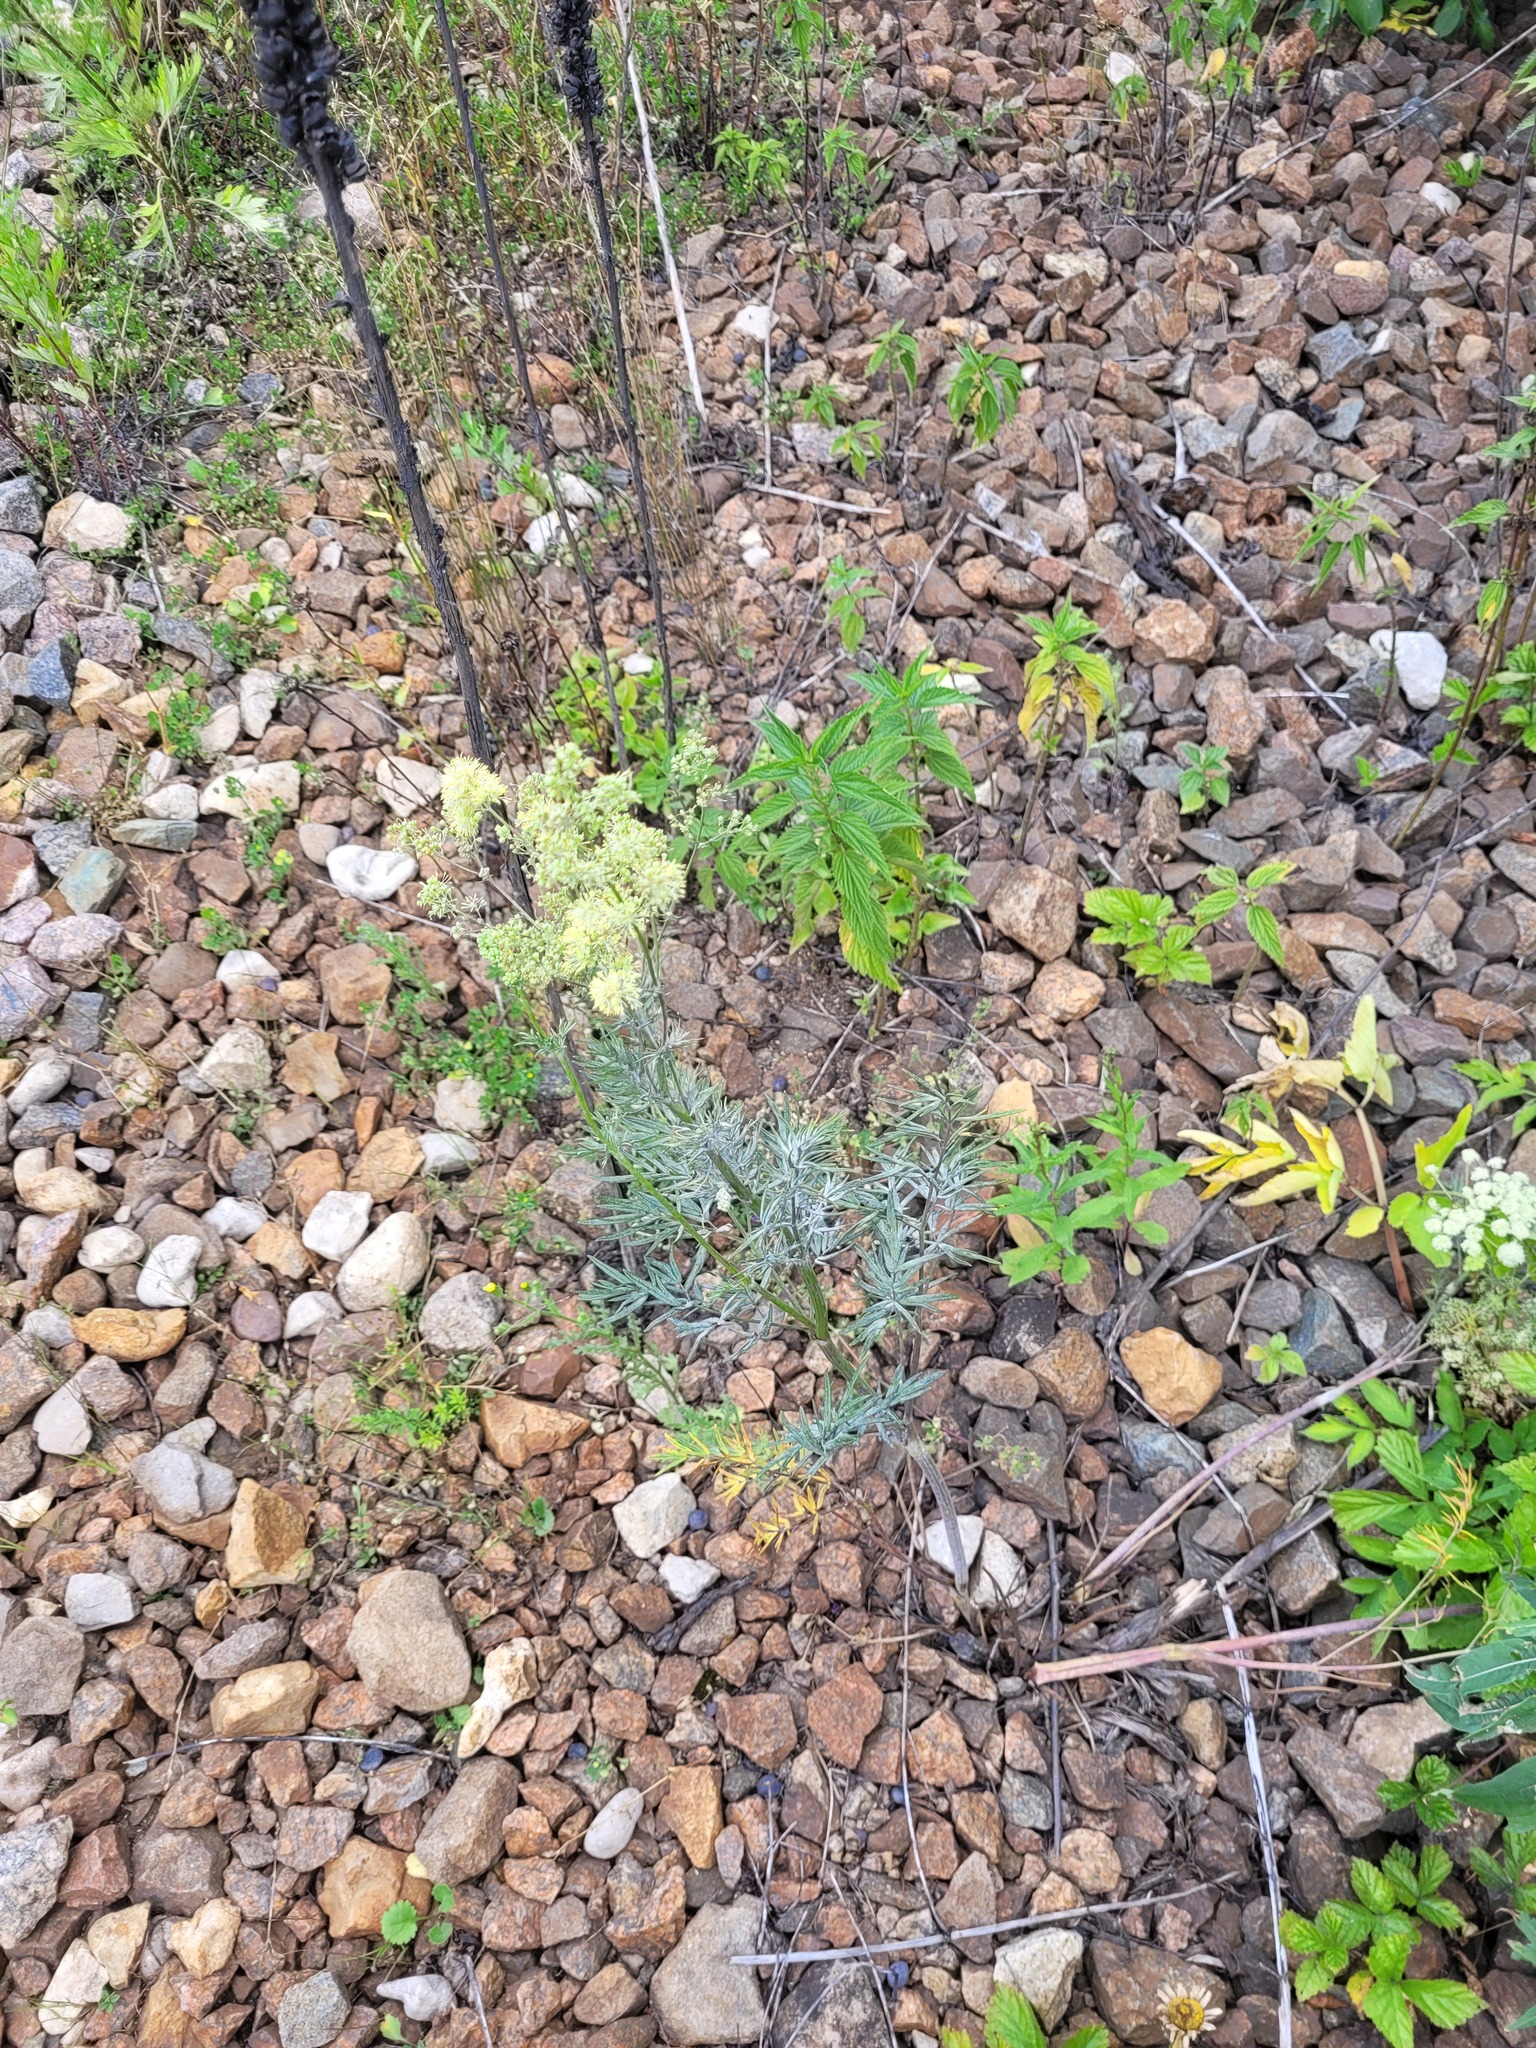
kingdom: Plantae
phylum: Tracheophyta
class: Magnoliopsida
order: Ranunculales
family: Ranunculaceae
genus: Thalictrum
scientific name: Thalictrum lucidum
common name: Shining meadow-rue
